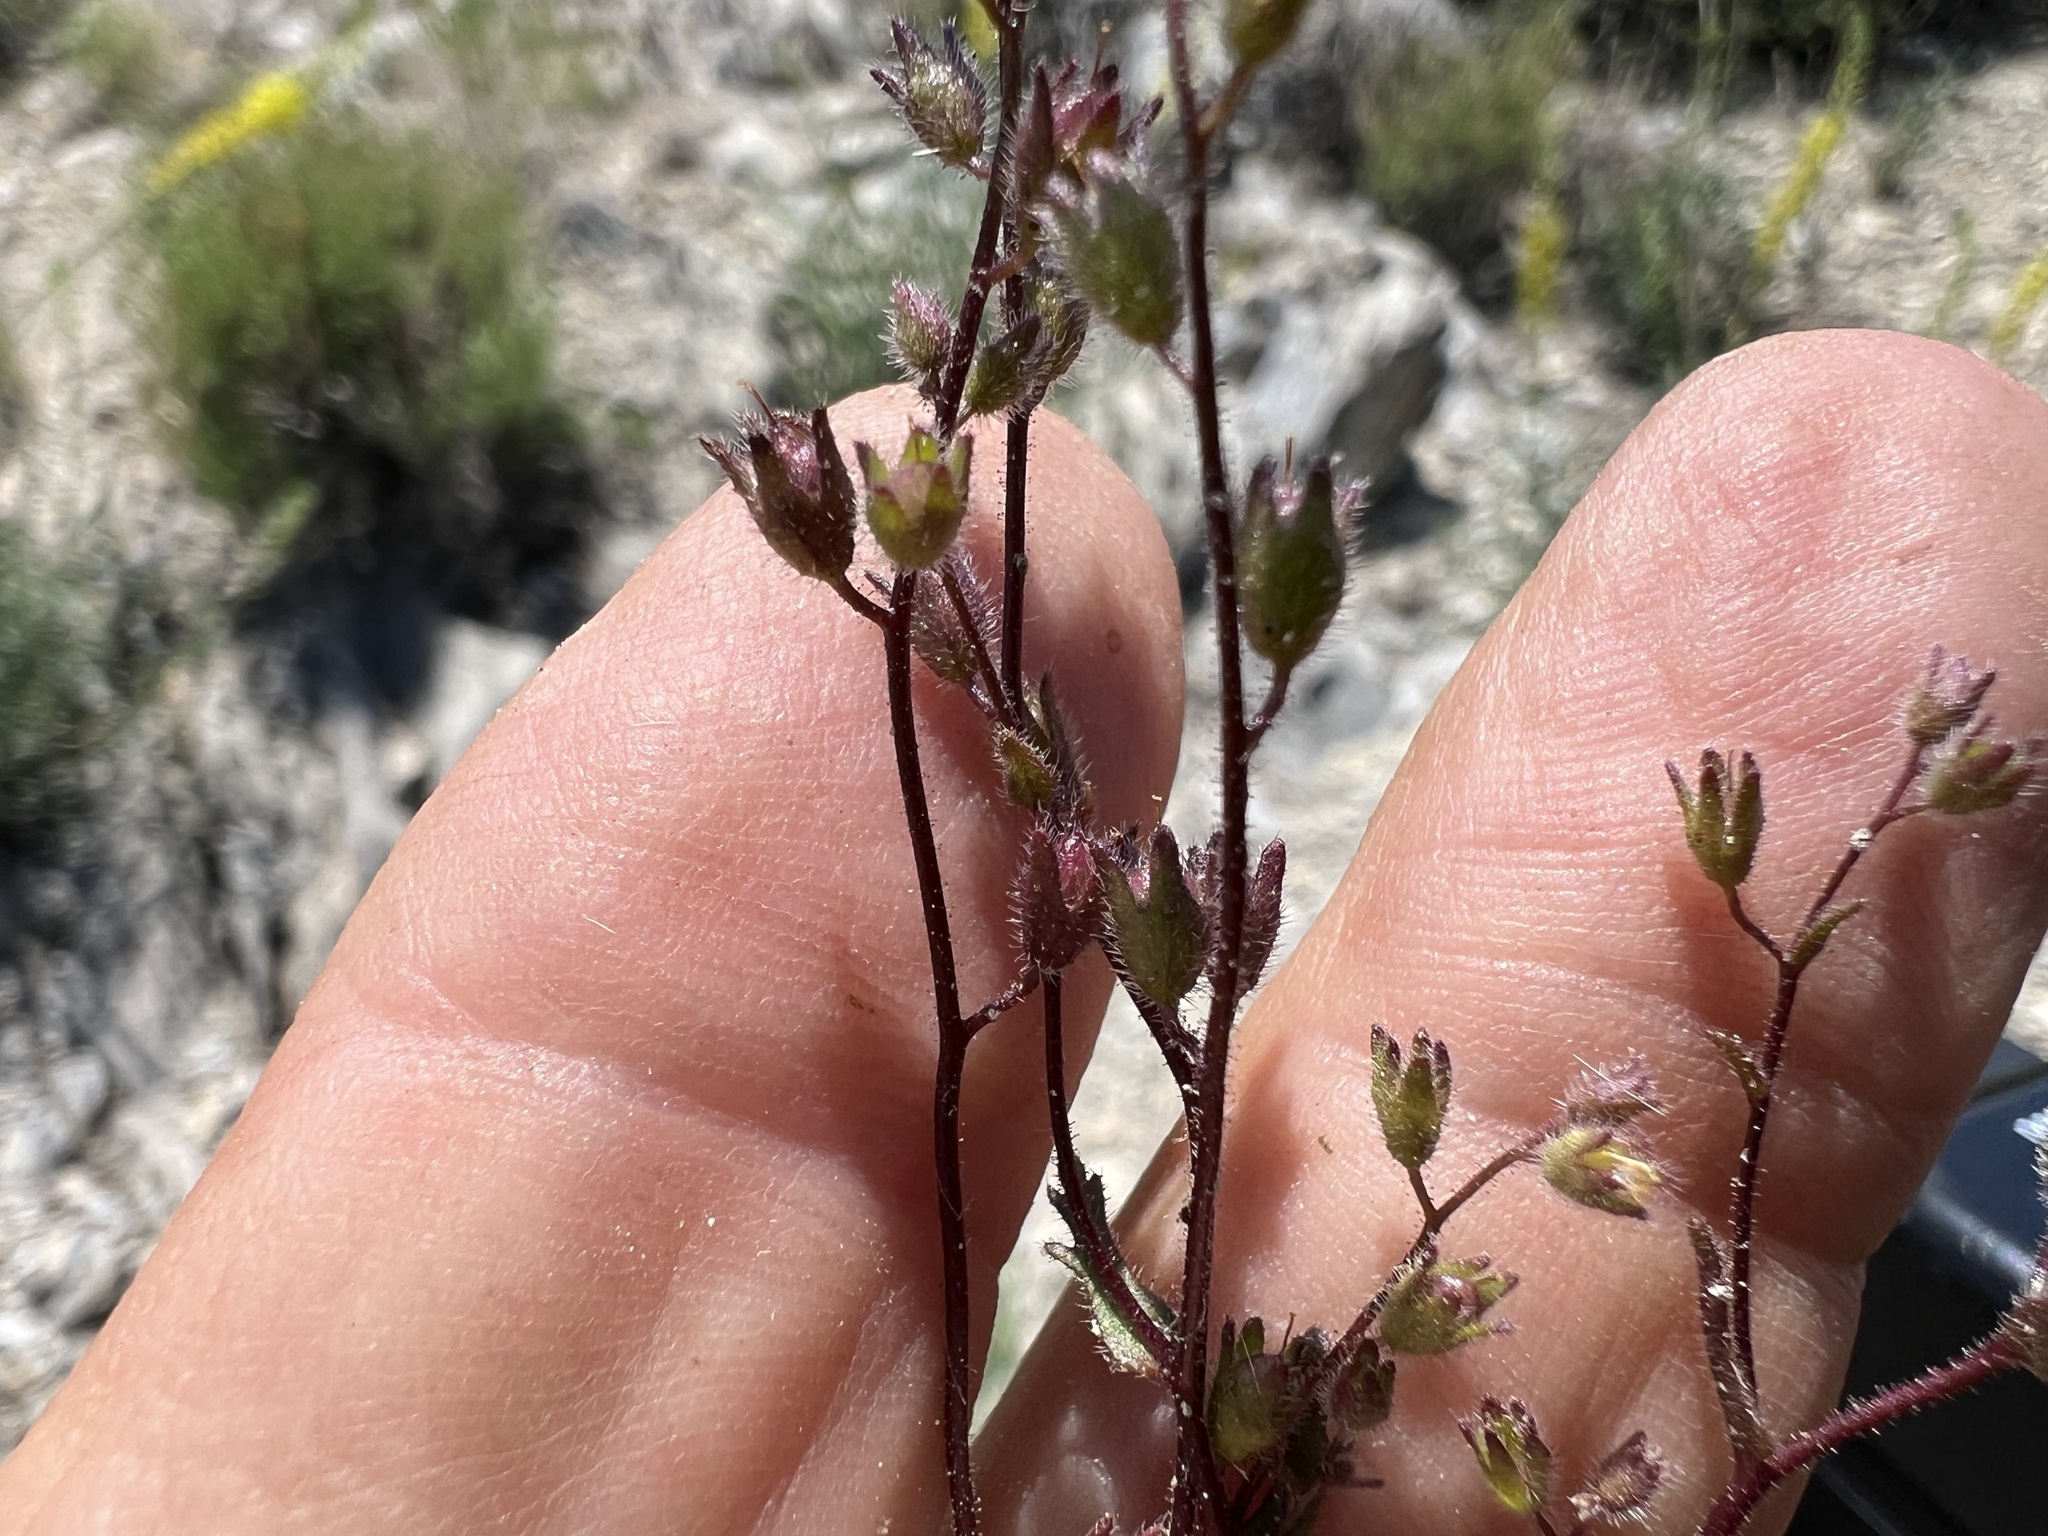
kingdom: Plantae
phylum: Tracheophyta
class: Magnoliopsida
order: Boraginales
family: Hydrophyllaceae
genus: Eucrypta
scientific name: Eucrypta micrantha
